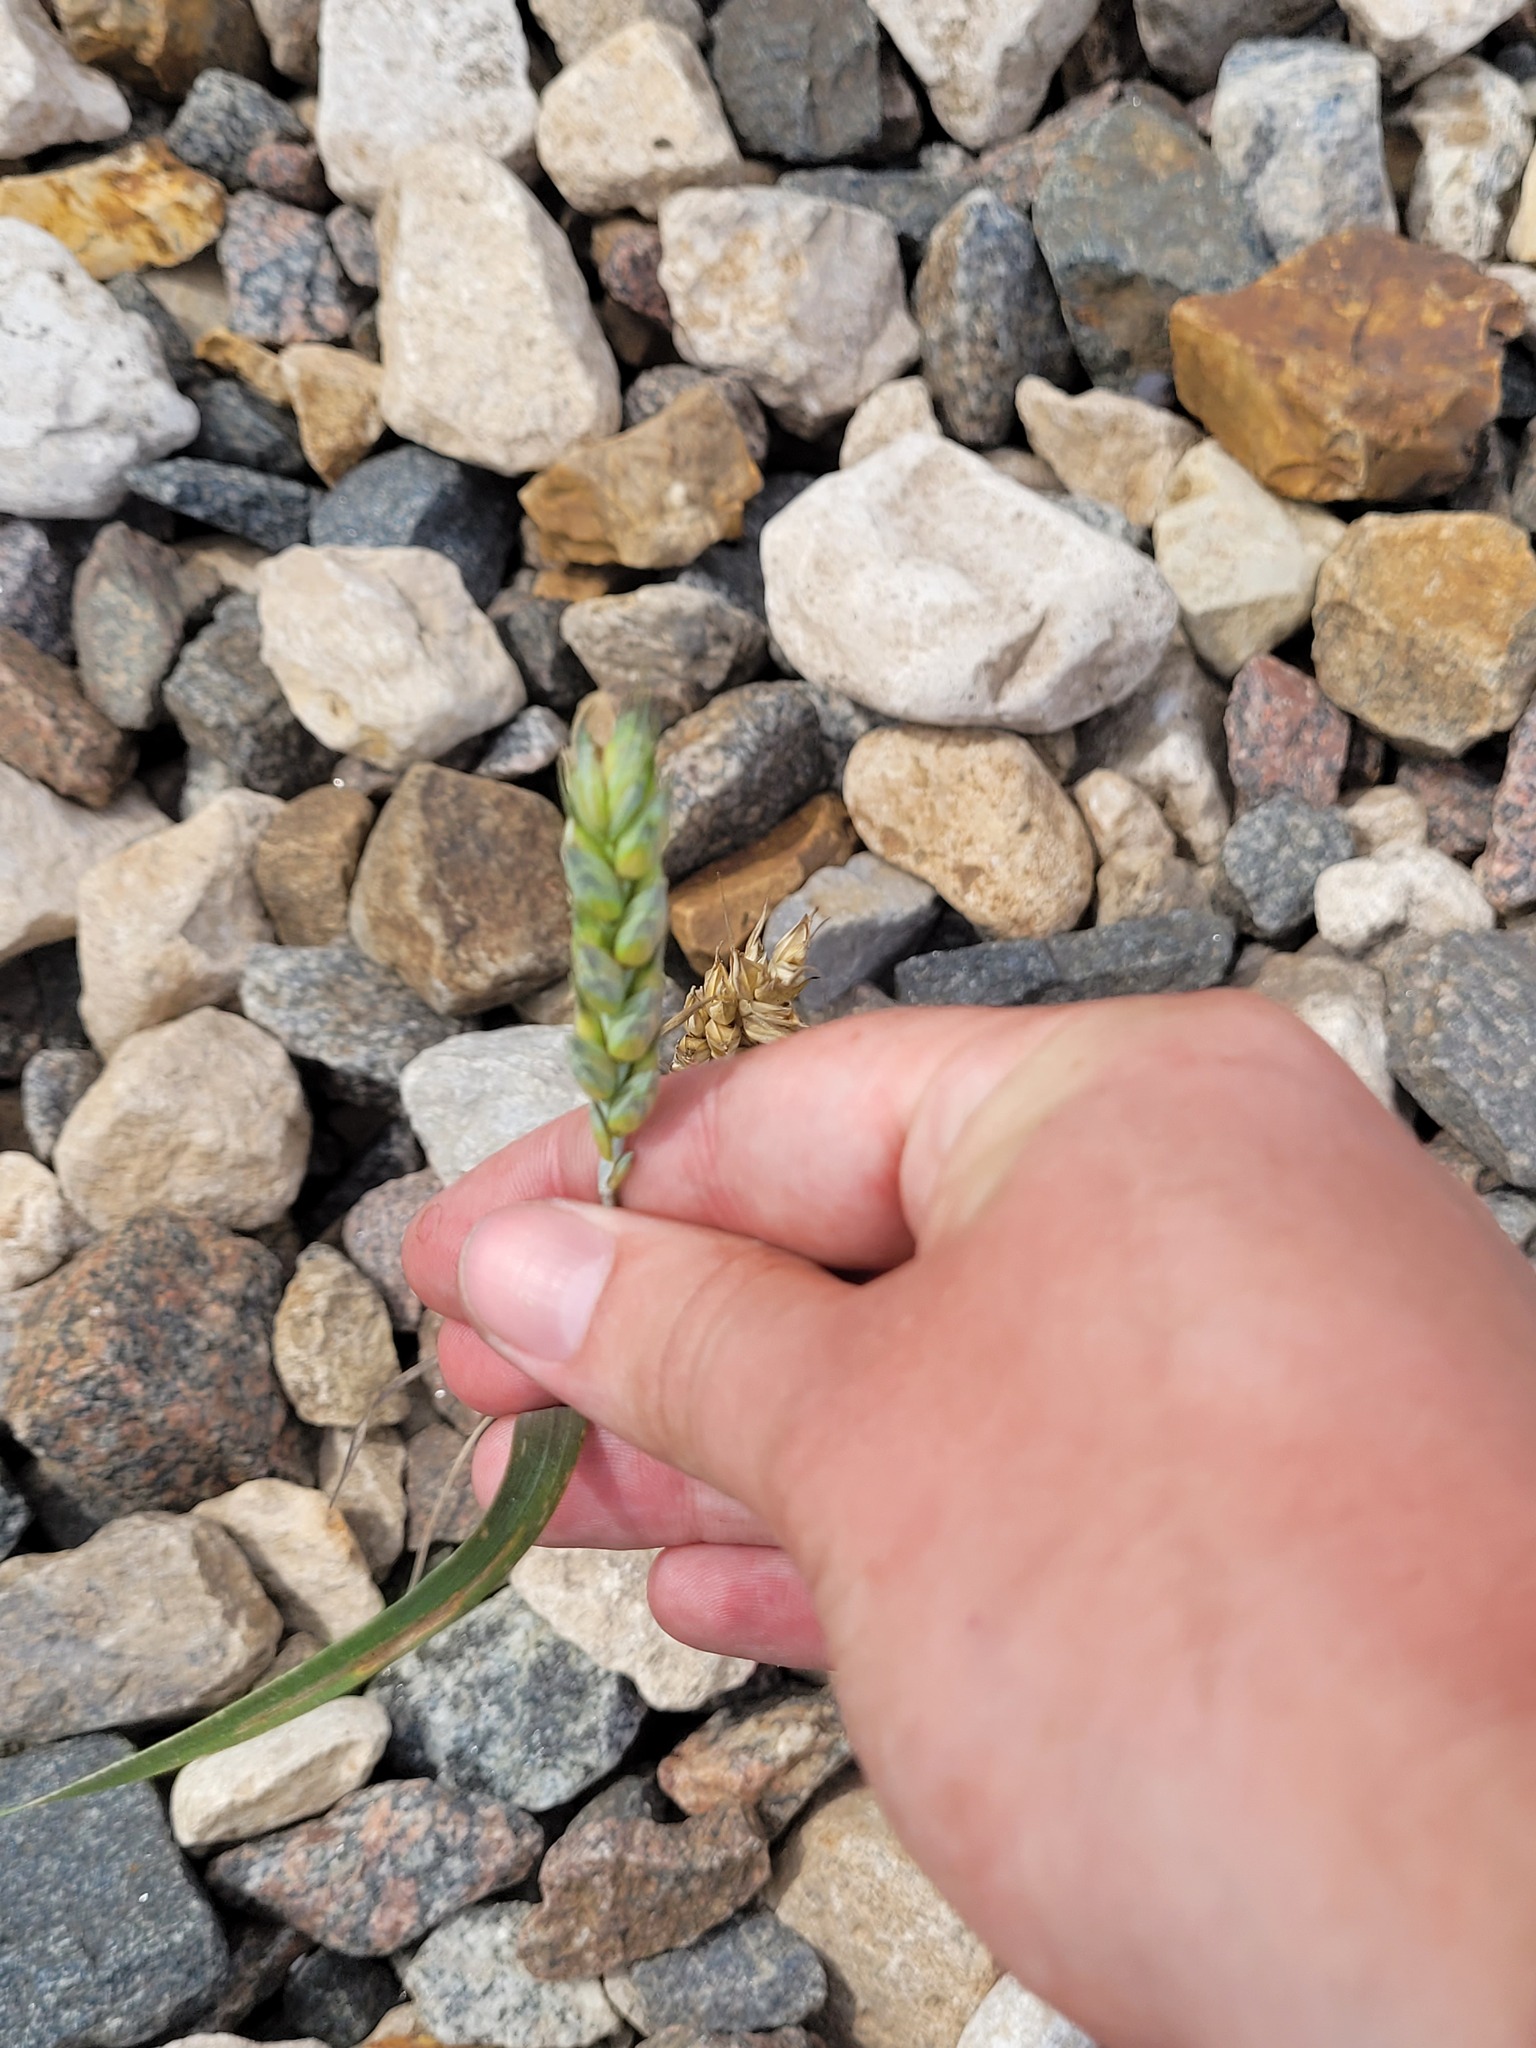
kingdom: Plantae
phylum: Tracheophyta
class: Liliopsida
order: Poales
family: Poaceae
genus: Triticum
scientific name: Triticum aestivum
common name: Common wheat
